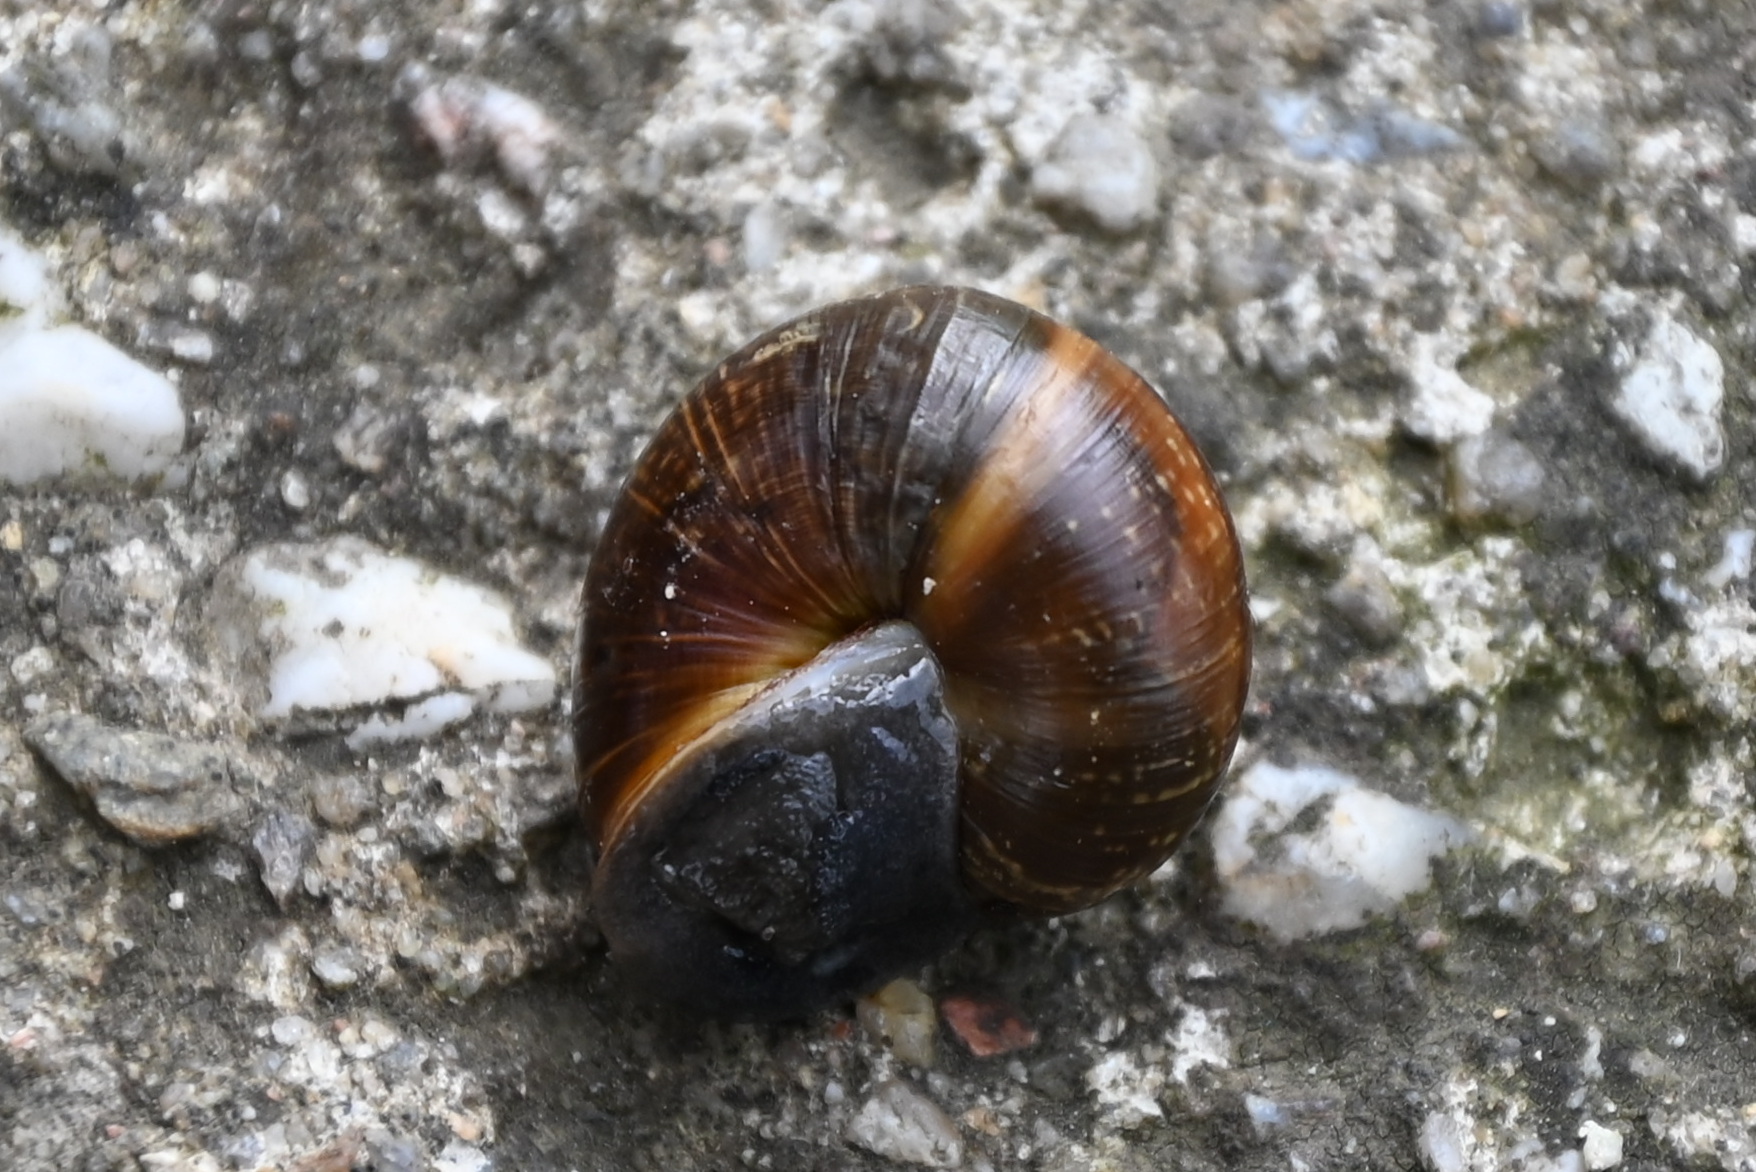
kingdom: Animalia
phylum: Mollusca
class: Gastropoda
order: Stylommatophora
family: Helicidae
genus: Arianta
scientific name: Arianta arbustorum
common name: Copse snail
